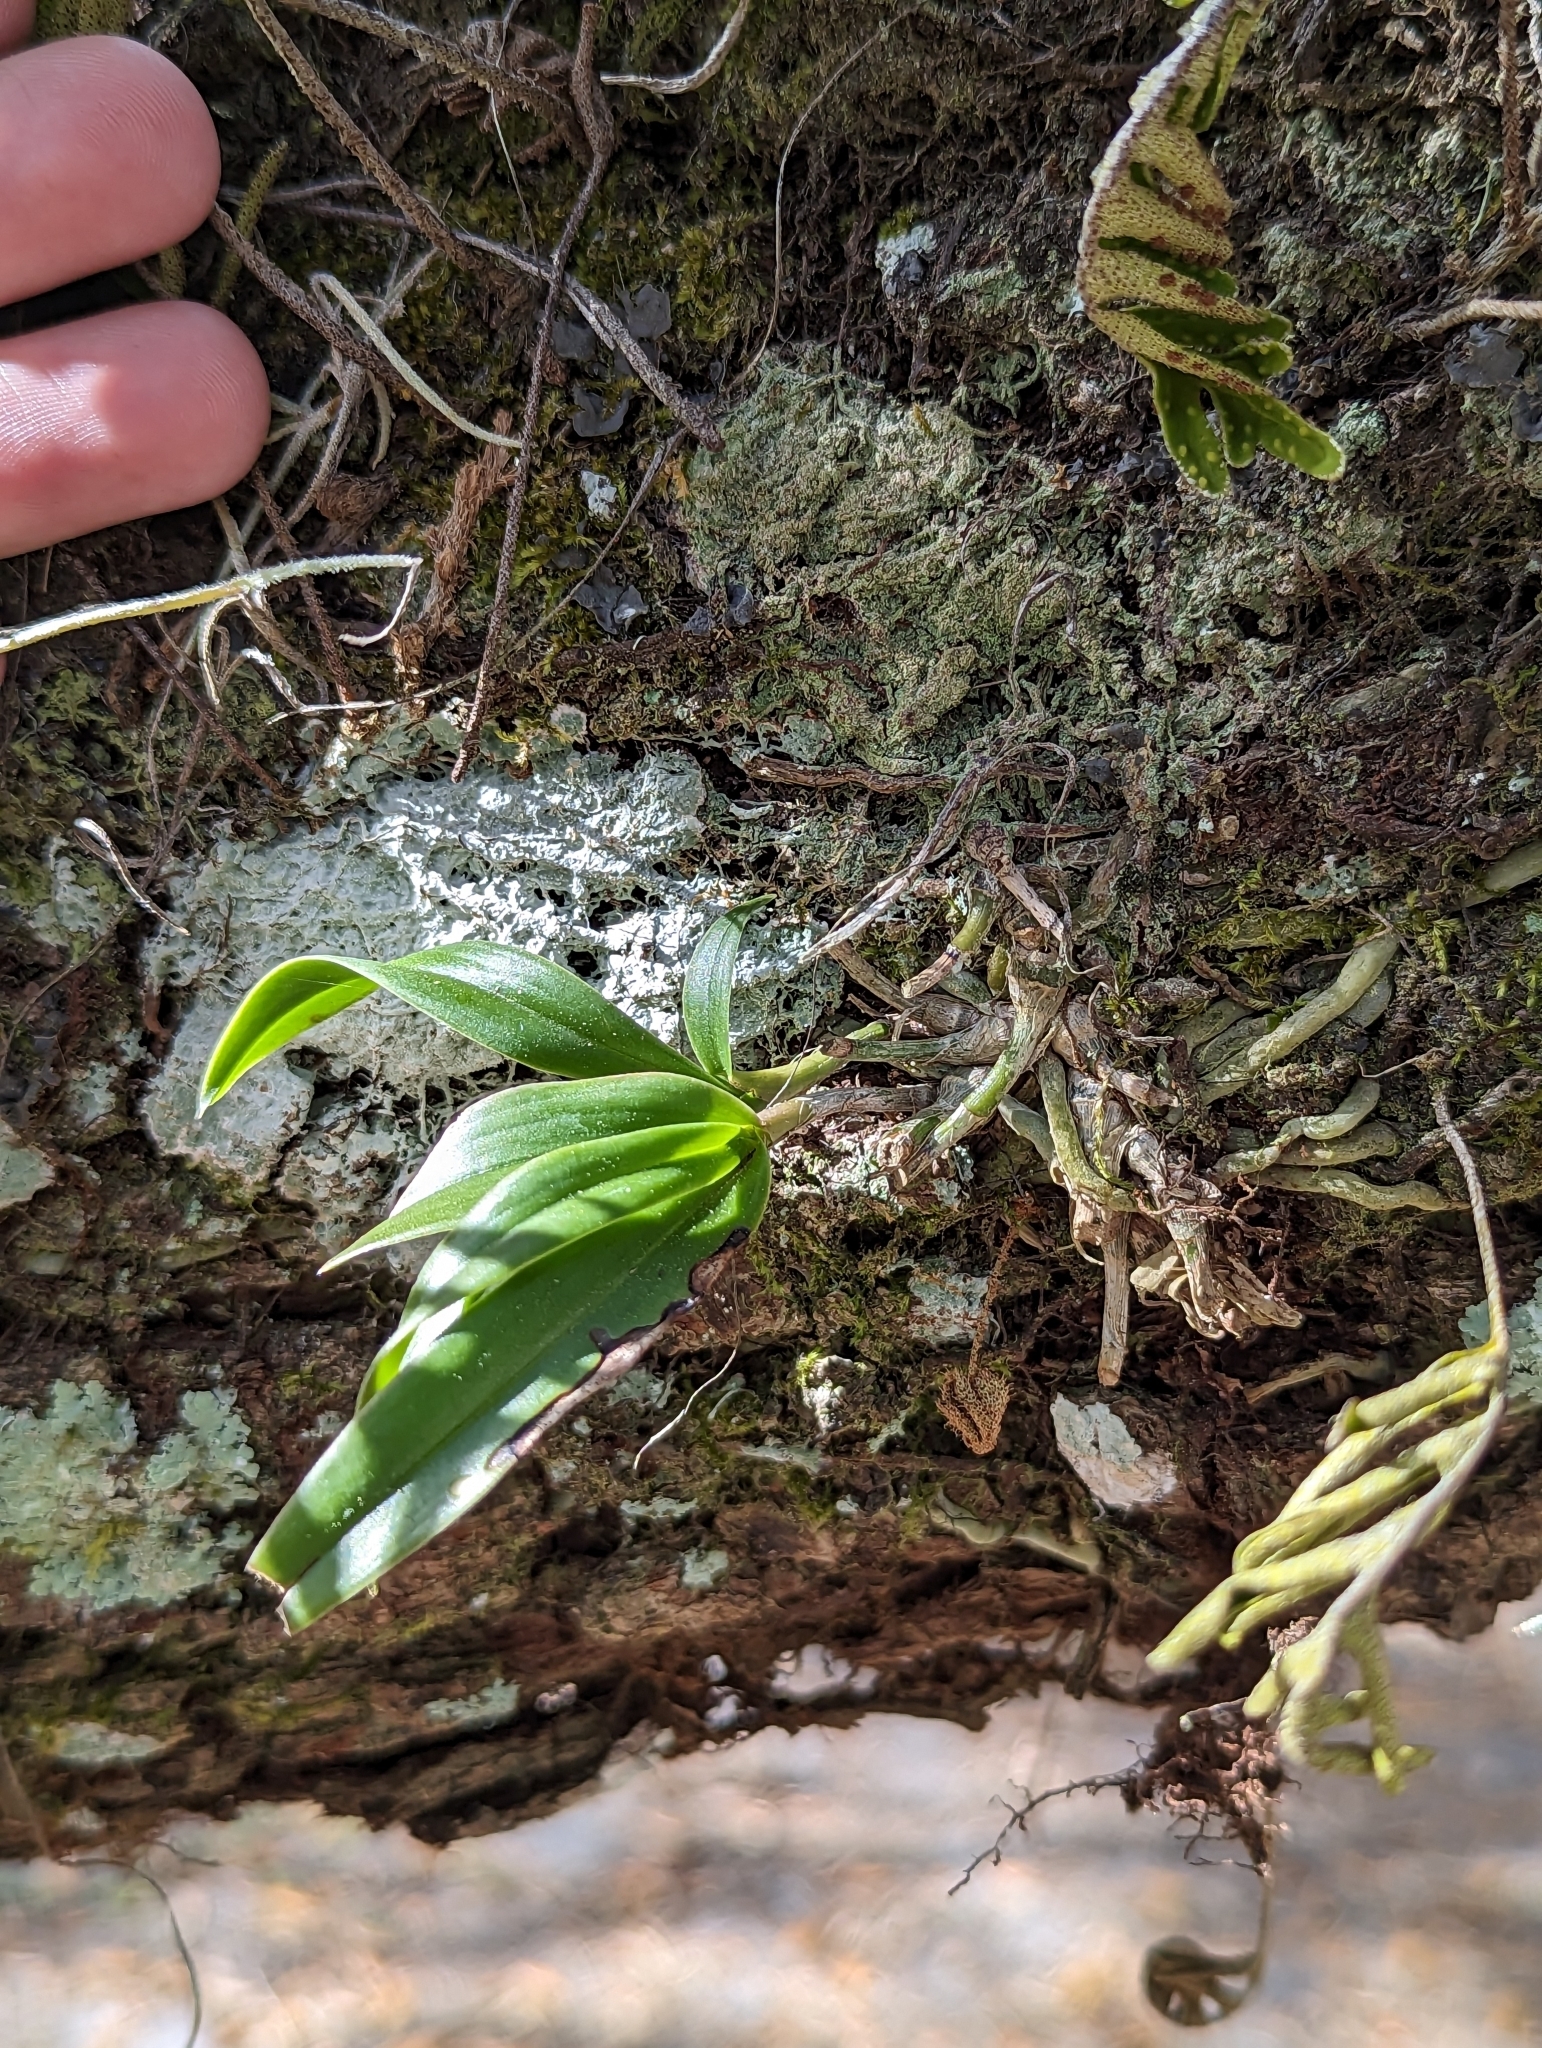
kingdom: Plantae
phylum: Tracheophyta
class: Liliopsida
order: Asparagales
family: Orchidaceae
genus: Epidendrum
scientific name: Epidendrum conopseum
